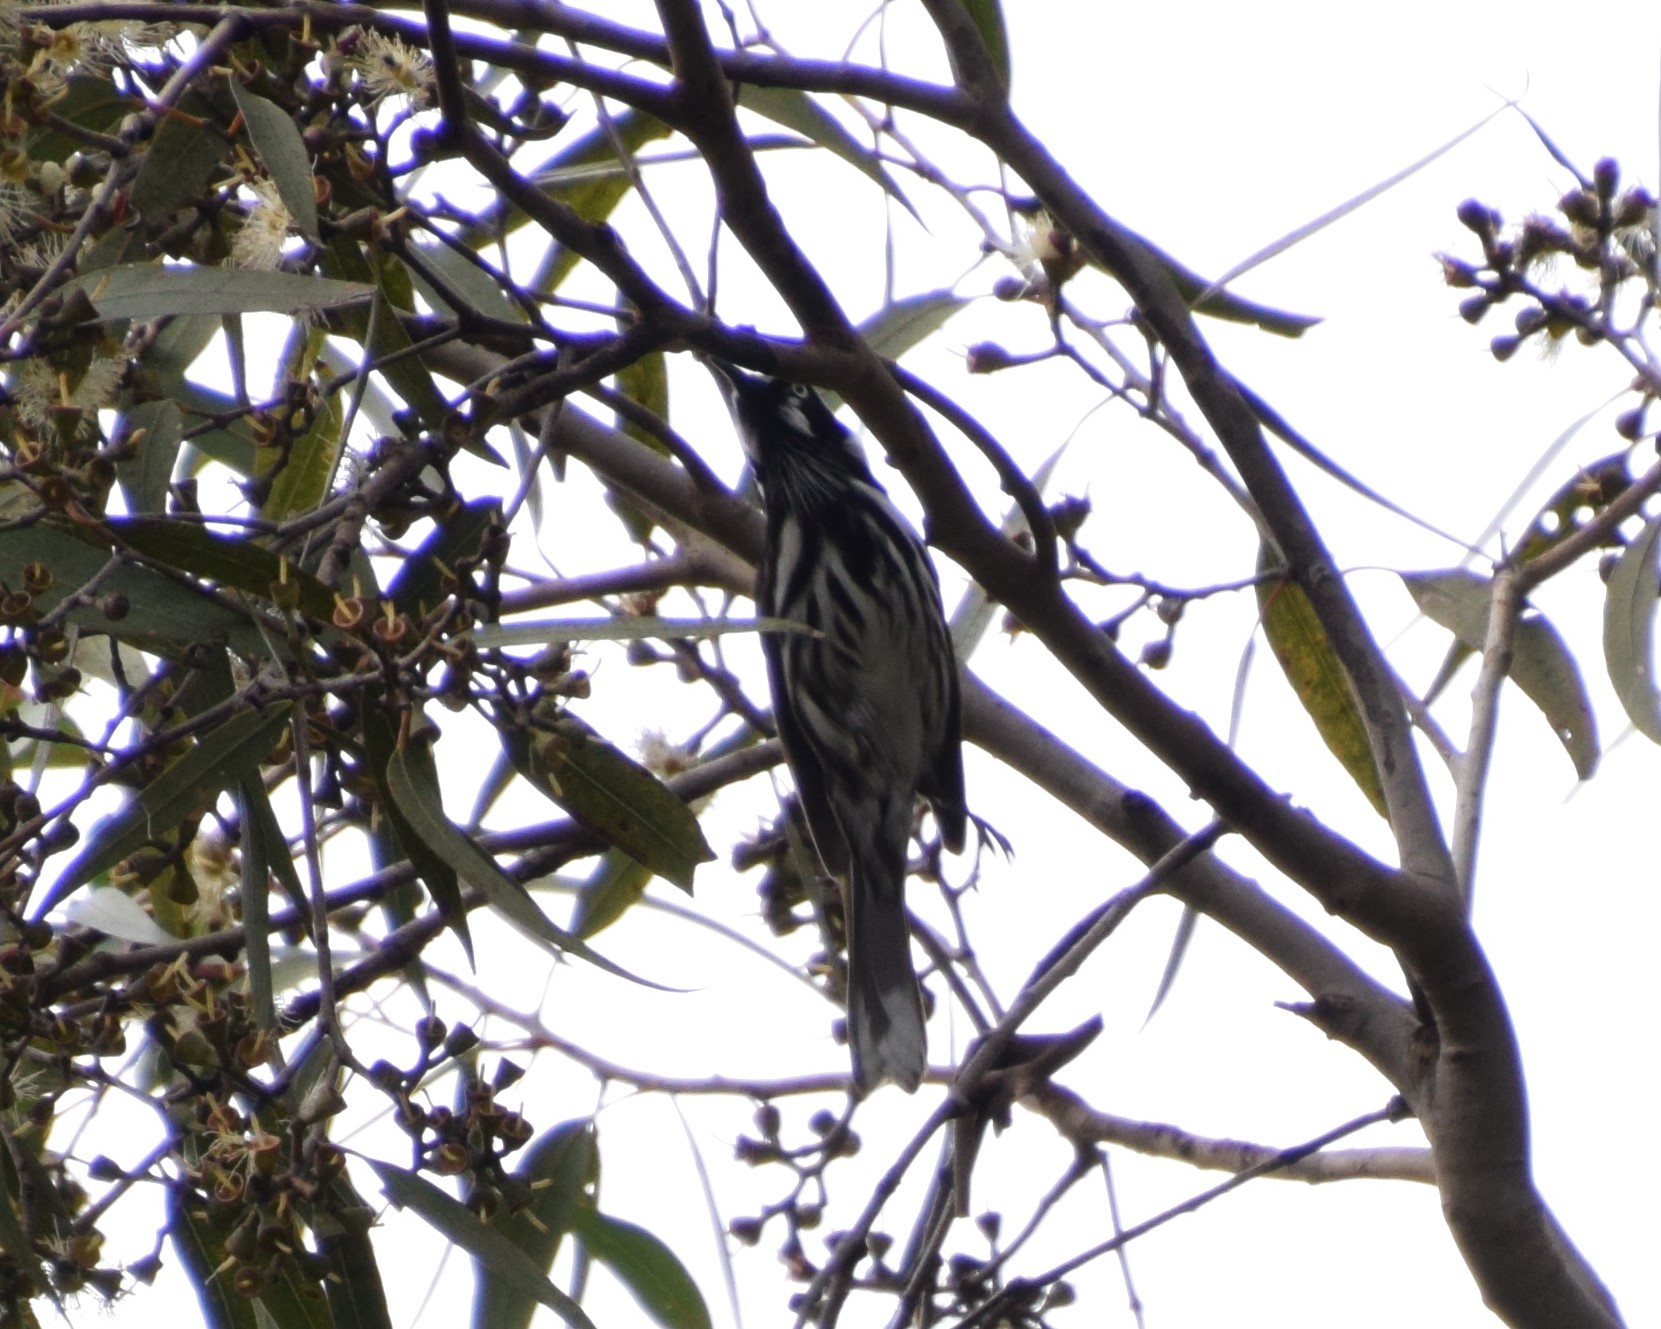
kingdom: Animalia
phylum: Chordata
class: Aves
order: Passeriformes
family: Meliphagidae
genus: Phylidonyris
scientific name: Phylidonyris novaehollandiae
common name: New holland honeyeater
